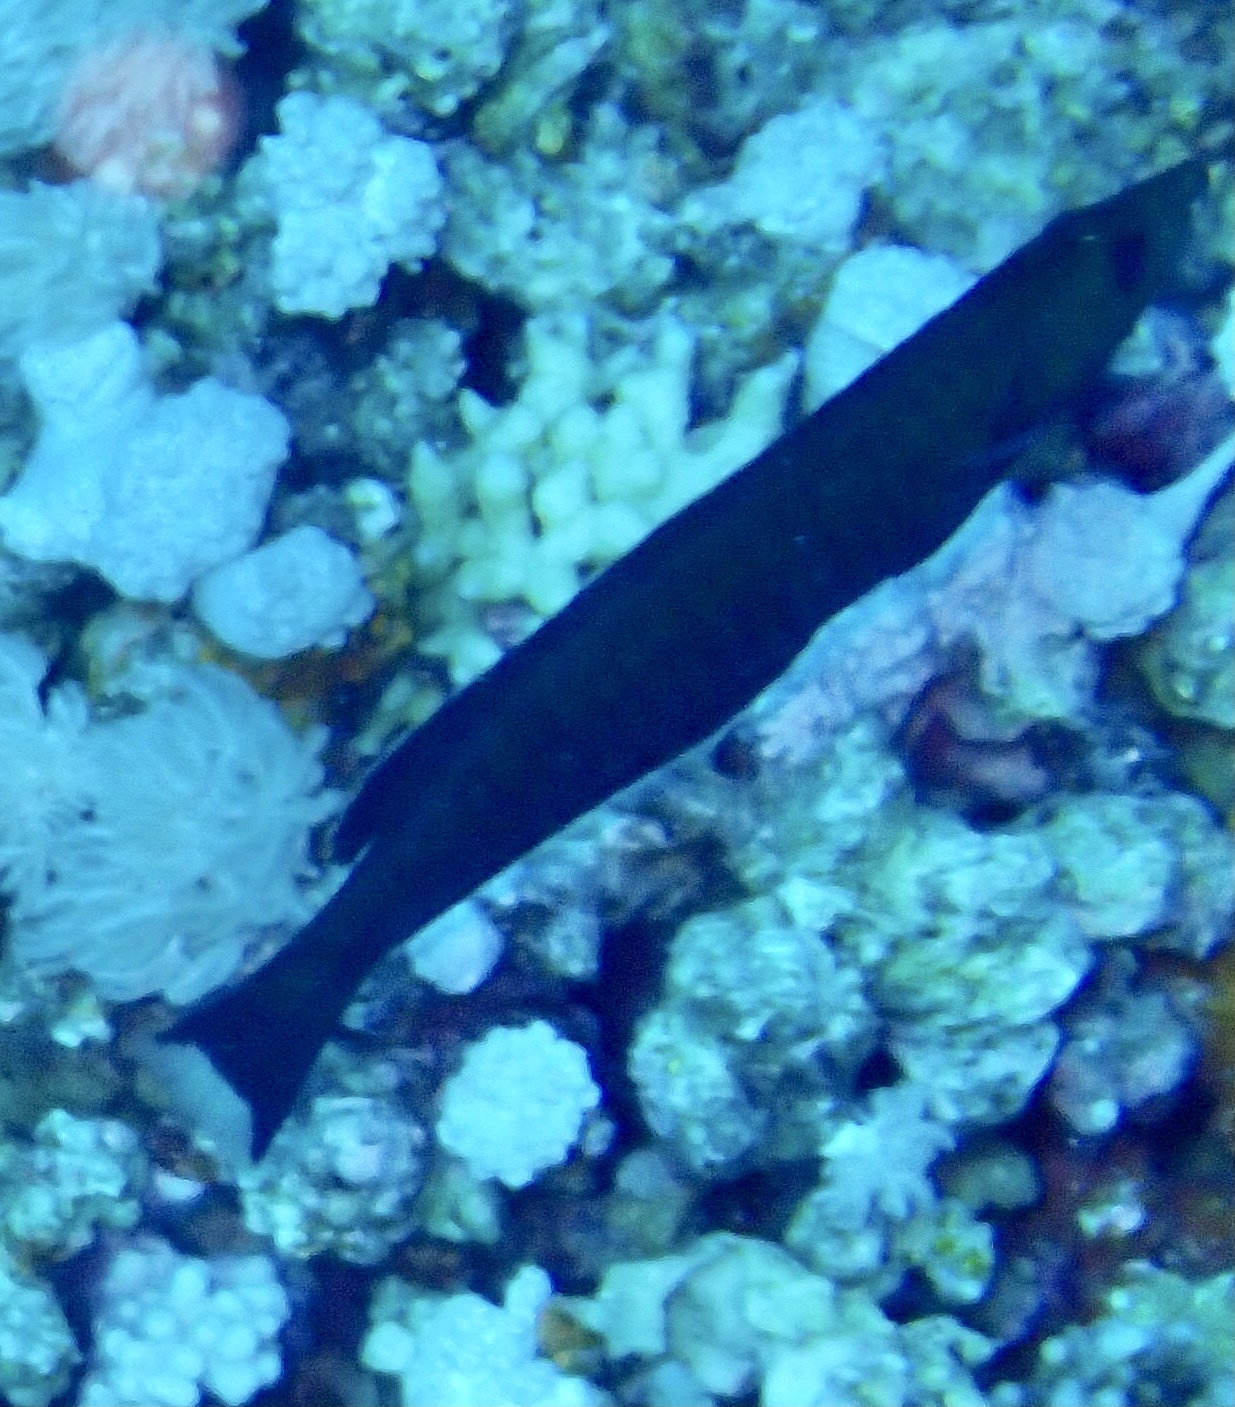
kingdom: Animalia
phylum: Chordata
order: Perciformes
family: Labridae
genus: Hologymnosus
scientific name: Hologymnosus annulatus
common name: Ring wrasse
